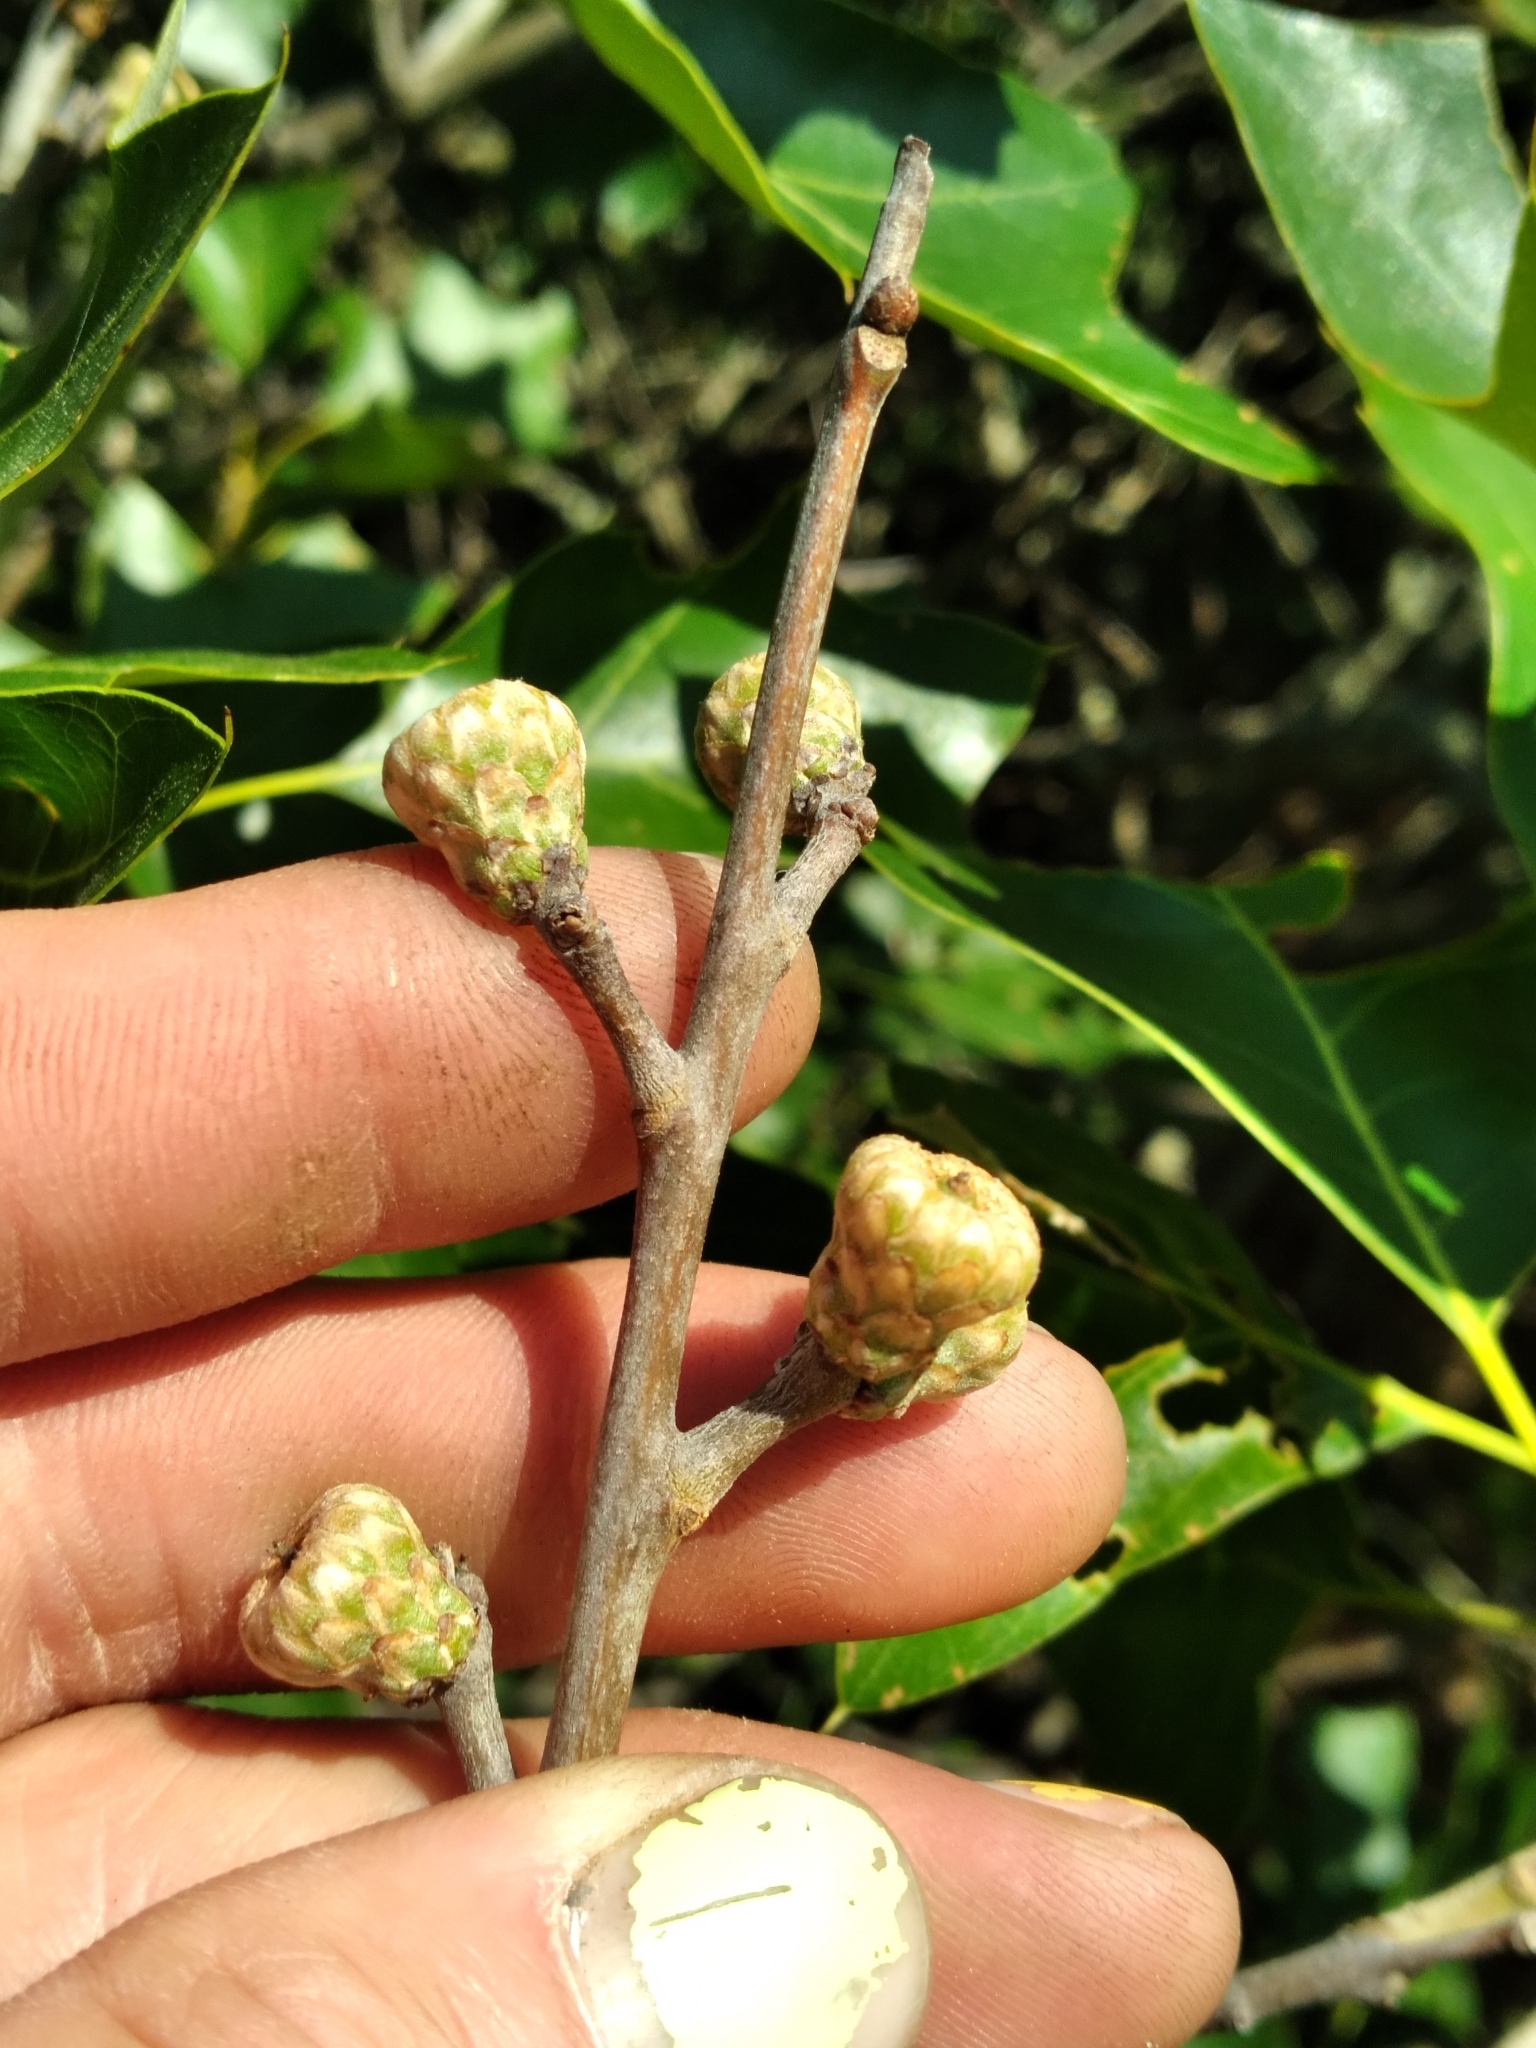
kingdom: Plantae
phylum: Tracheophyta
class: Magnoliopsida
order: Fagales
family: Fagaceae
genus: Quercus
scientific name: Quercus ilicifolia
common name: Bear oak
